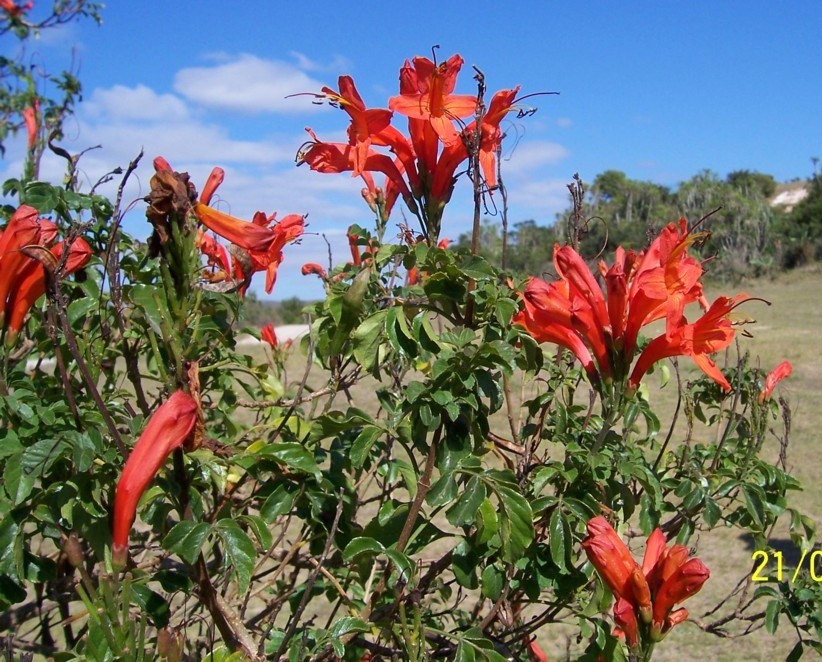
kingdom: Plantae
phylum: Tracheophyta
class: Magnoliopsida
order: Lamiales
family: Bignoniaceae
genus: Tecomaria
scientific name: Tecomaria capensis
